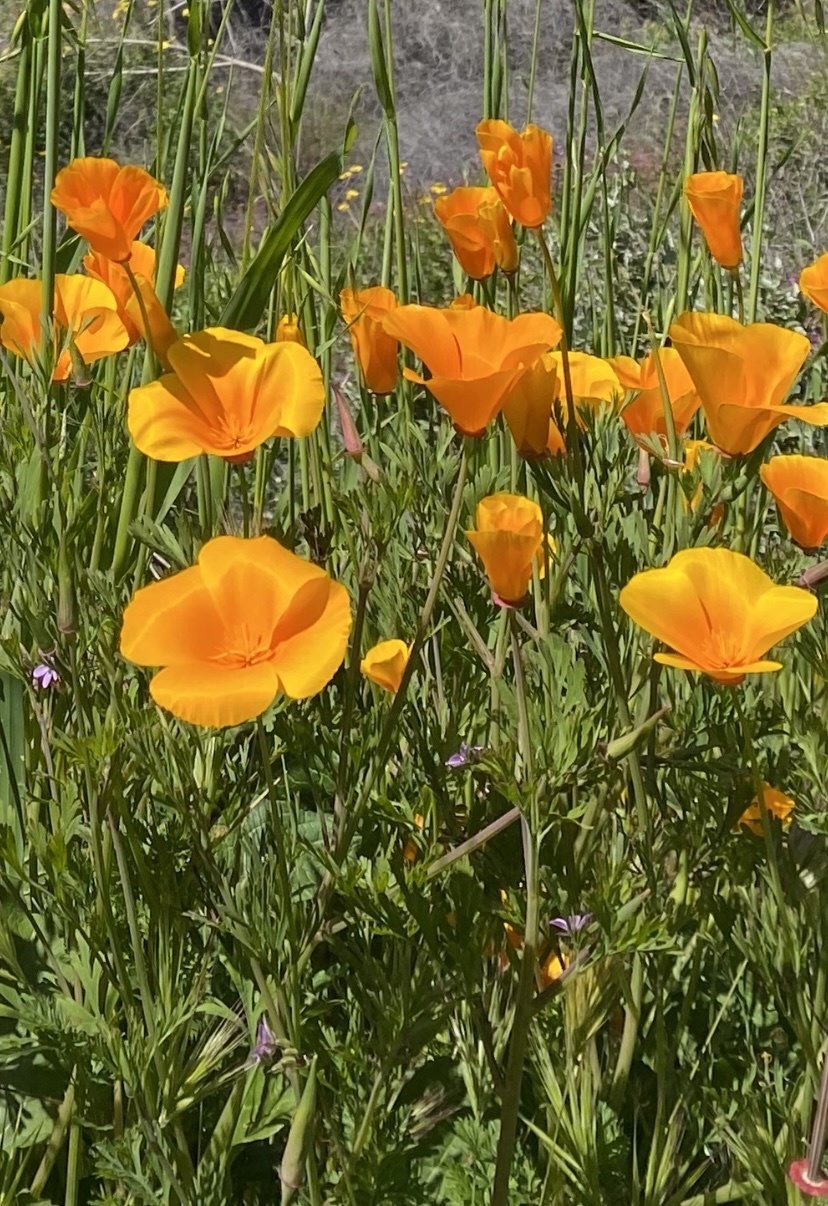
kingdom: Plantae
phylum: Tracheophyta
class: Magnoliopsida
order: Ranunculales
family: Papaveraceae
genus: Eschscholzia
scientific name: Eschscholzia californica
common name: California poppy
